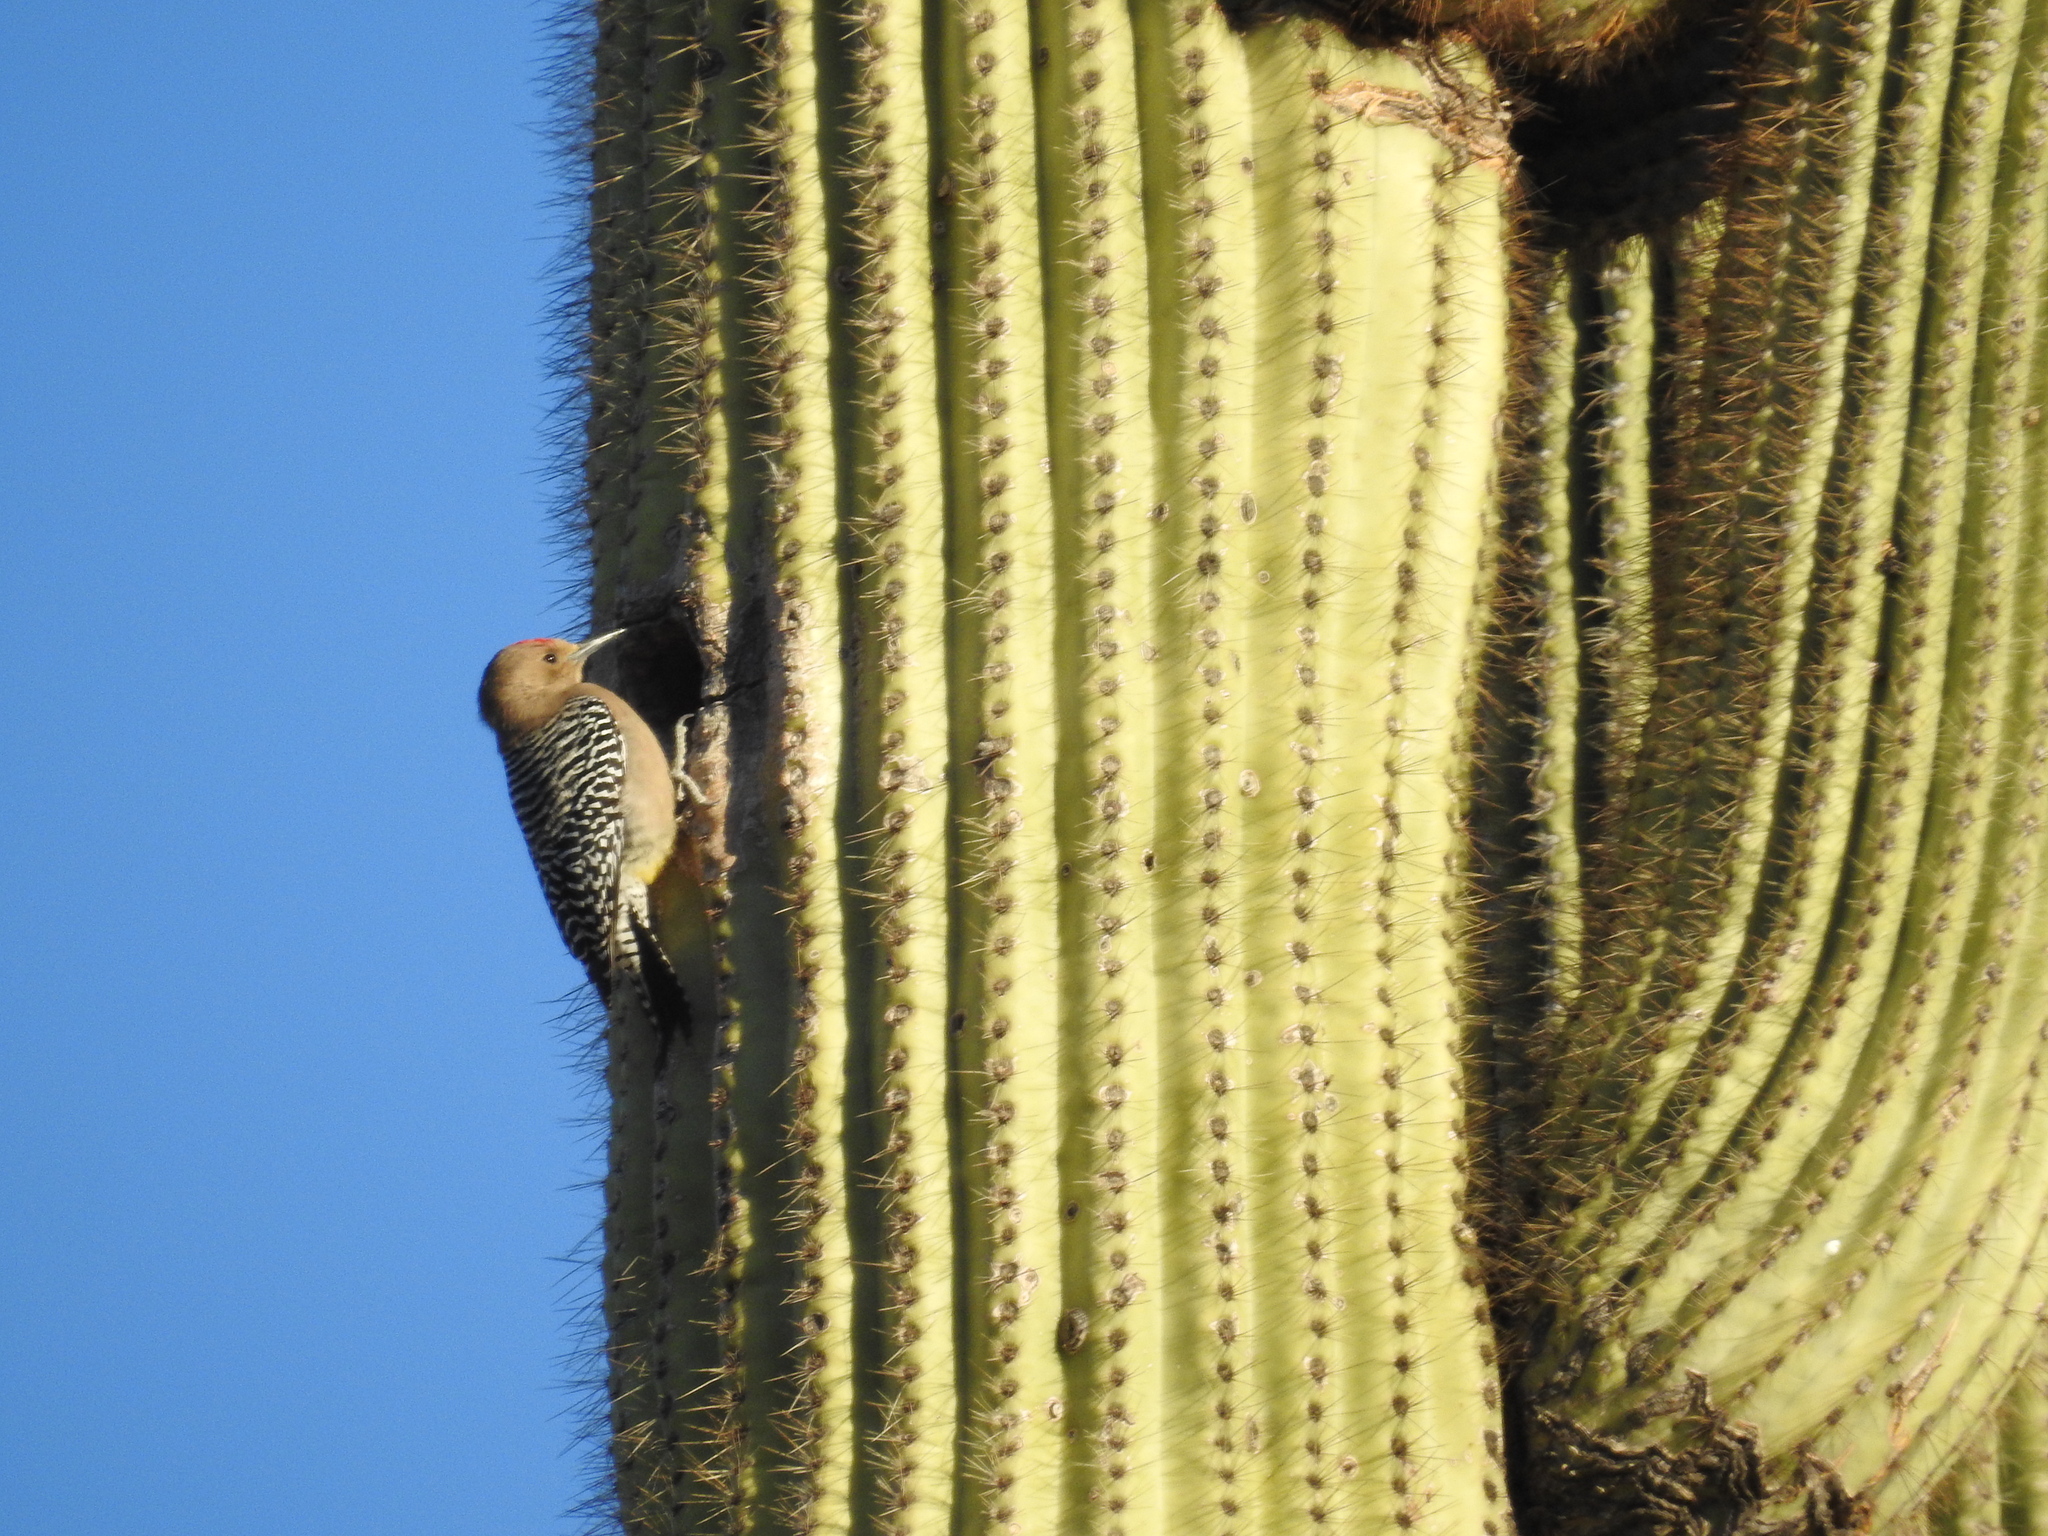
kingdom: Animalia
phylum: Chordata
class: Aves
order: Piciformes
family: Picidae
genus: Melanerpes
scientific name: Melanerpes uropygialis
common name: Gila woodpecker
